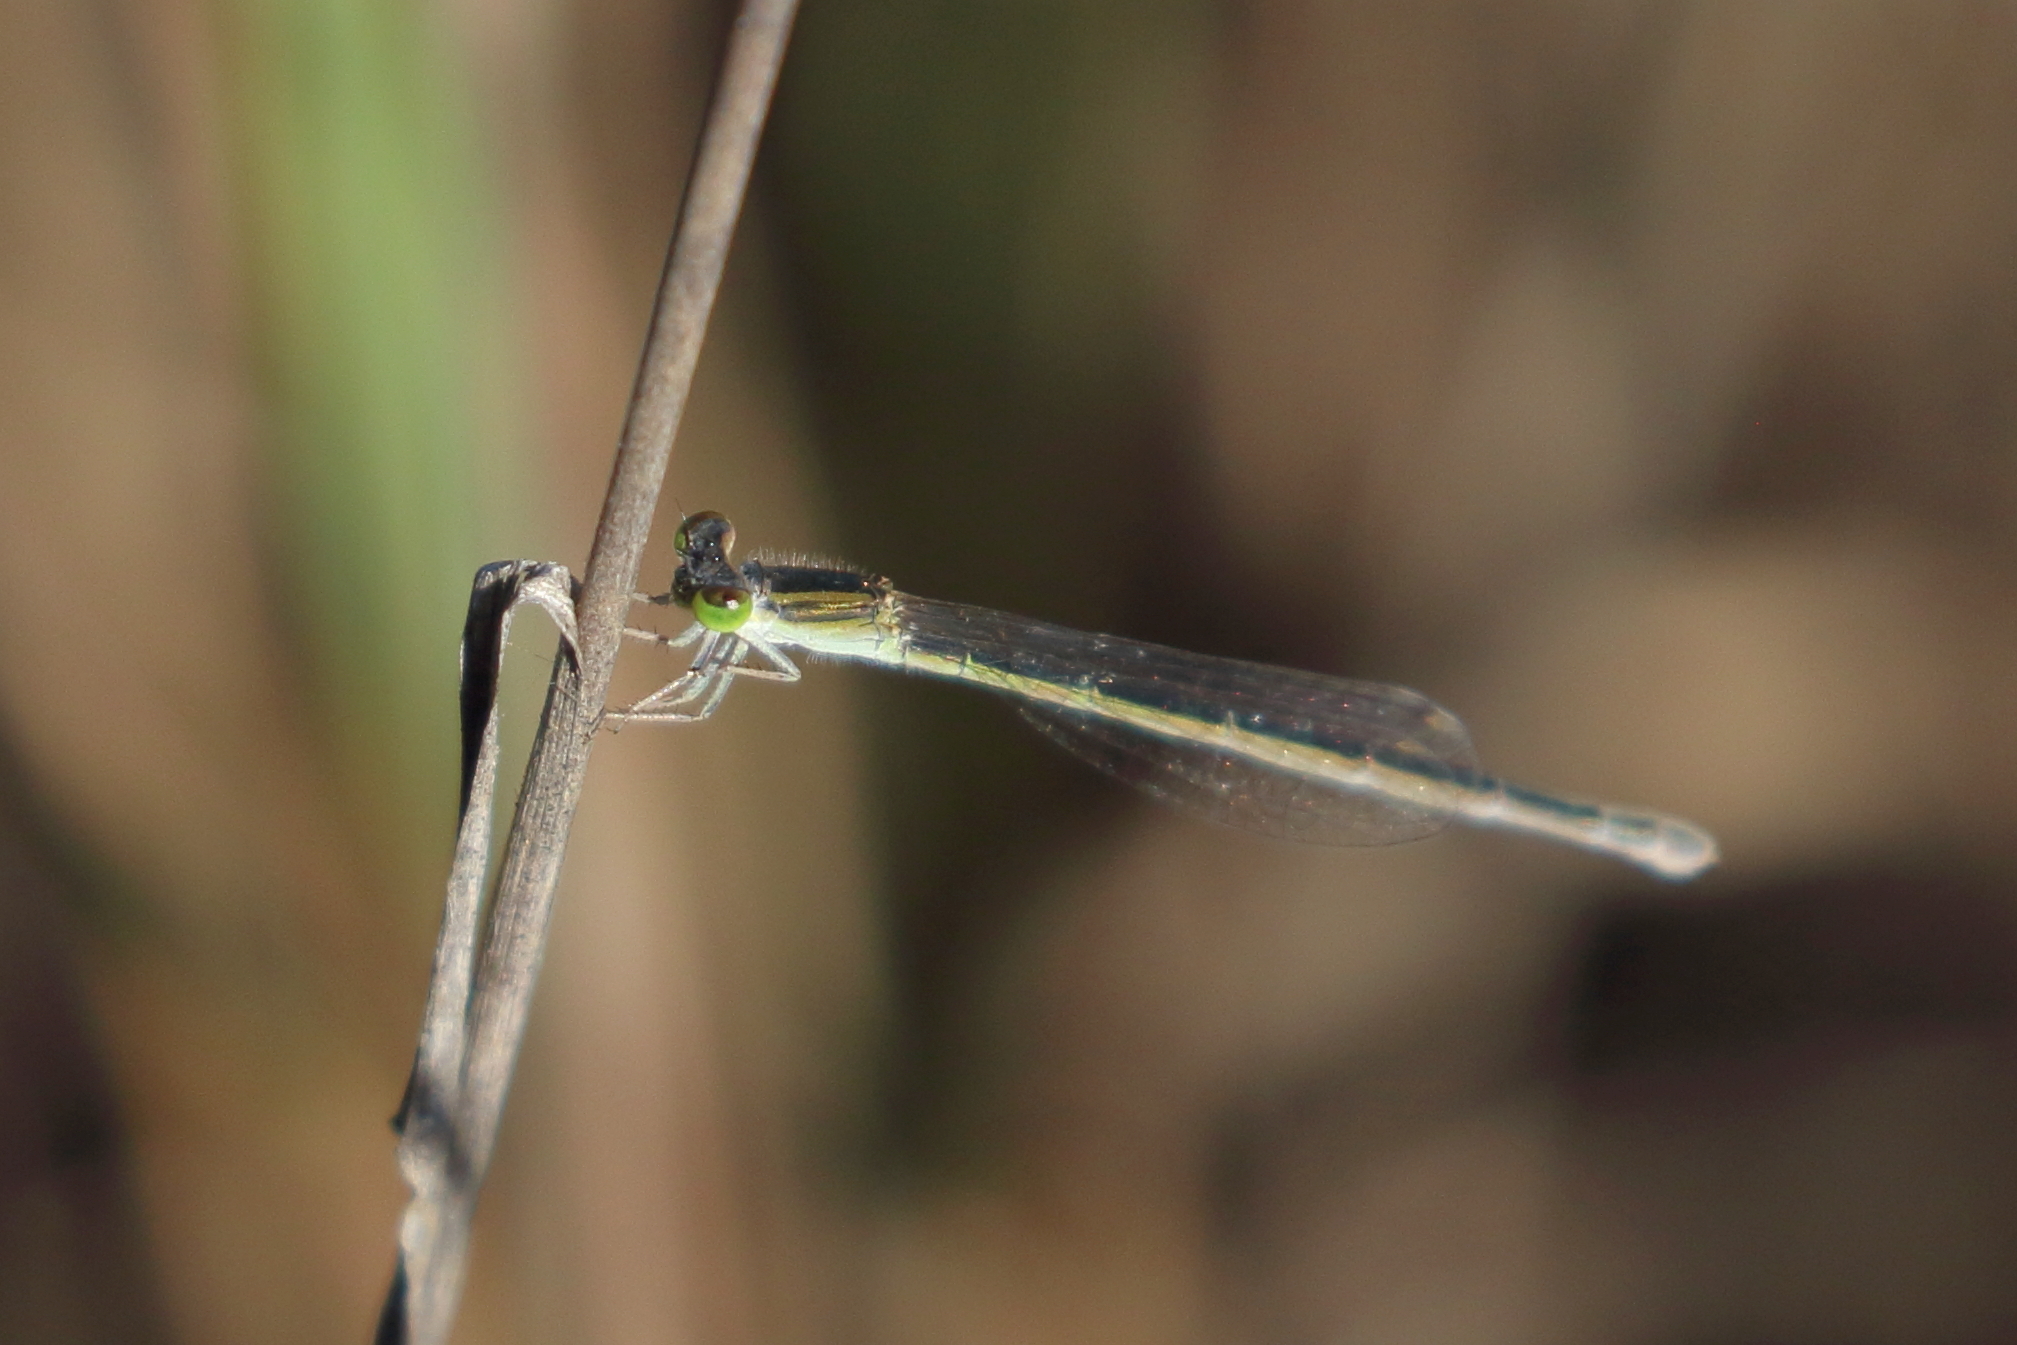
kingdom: Animalia
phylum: Arthropoda
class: Insecta
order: Odonata
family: Coenagrionidae
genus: Ischnura
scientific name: Ischnura aurora
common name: Gossamer damselfly
